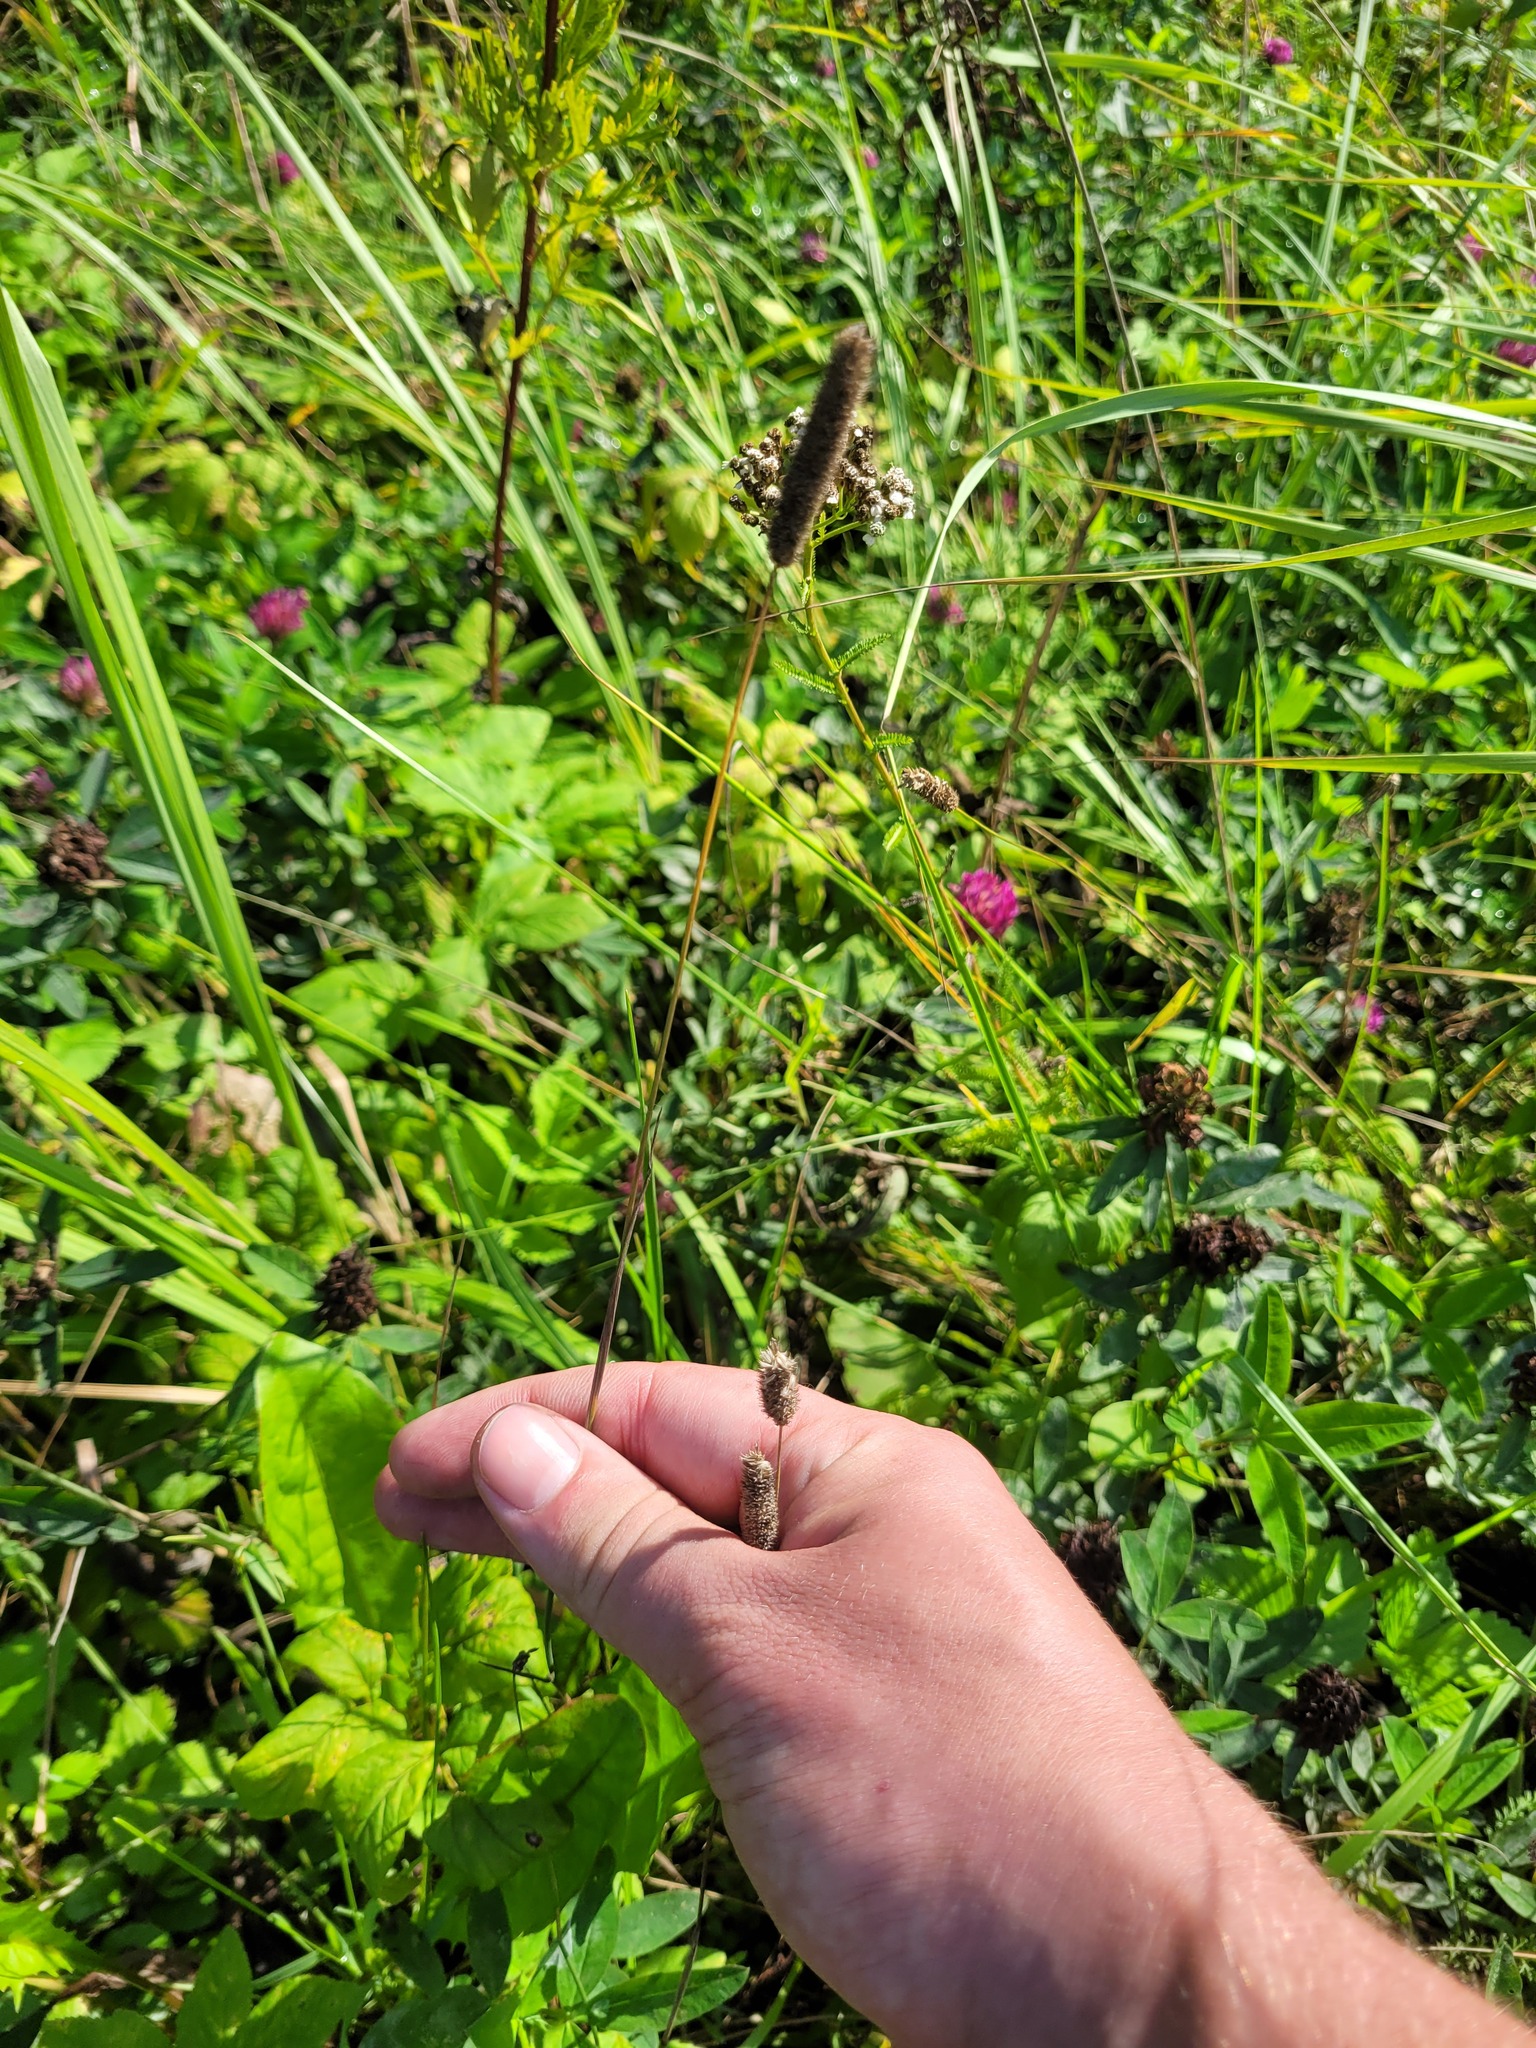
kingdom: Plantae
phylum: Tracheophyta
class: Liliopsida
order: Poales
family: Poaceae
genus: Phleum
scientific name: Phleum pratense
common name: Timothy grass
